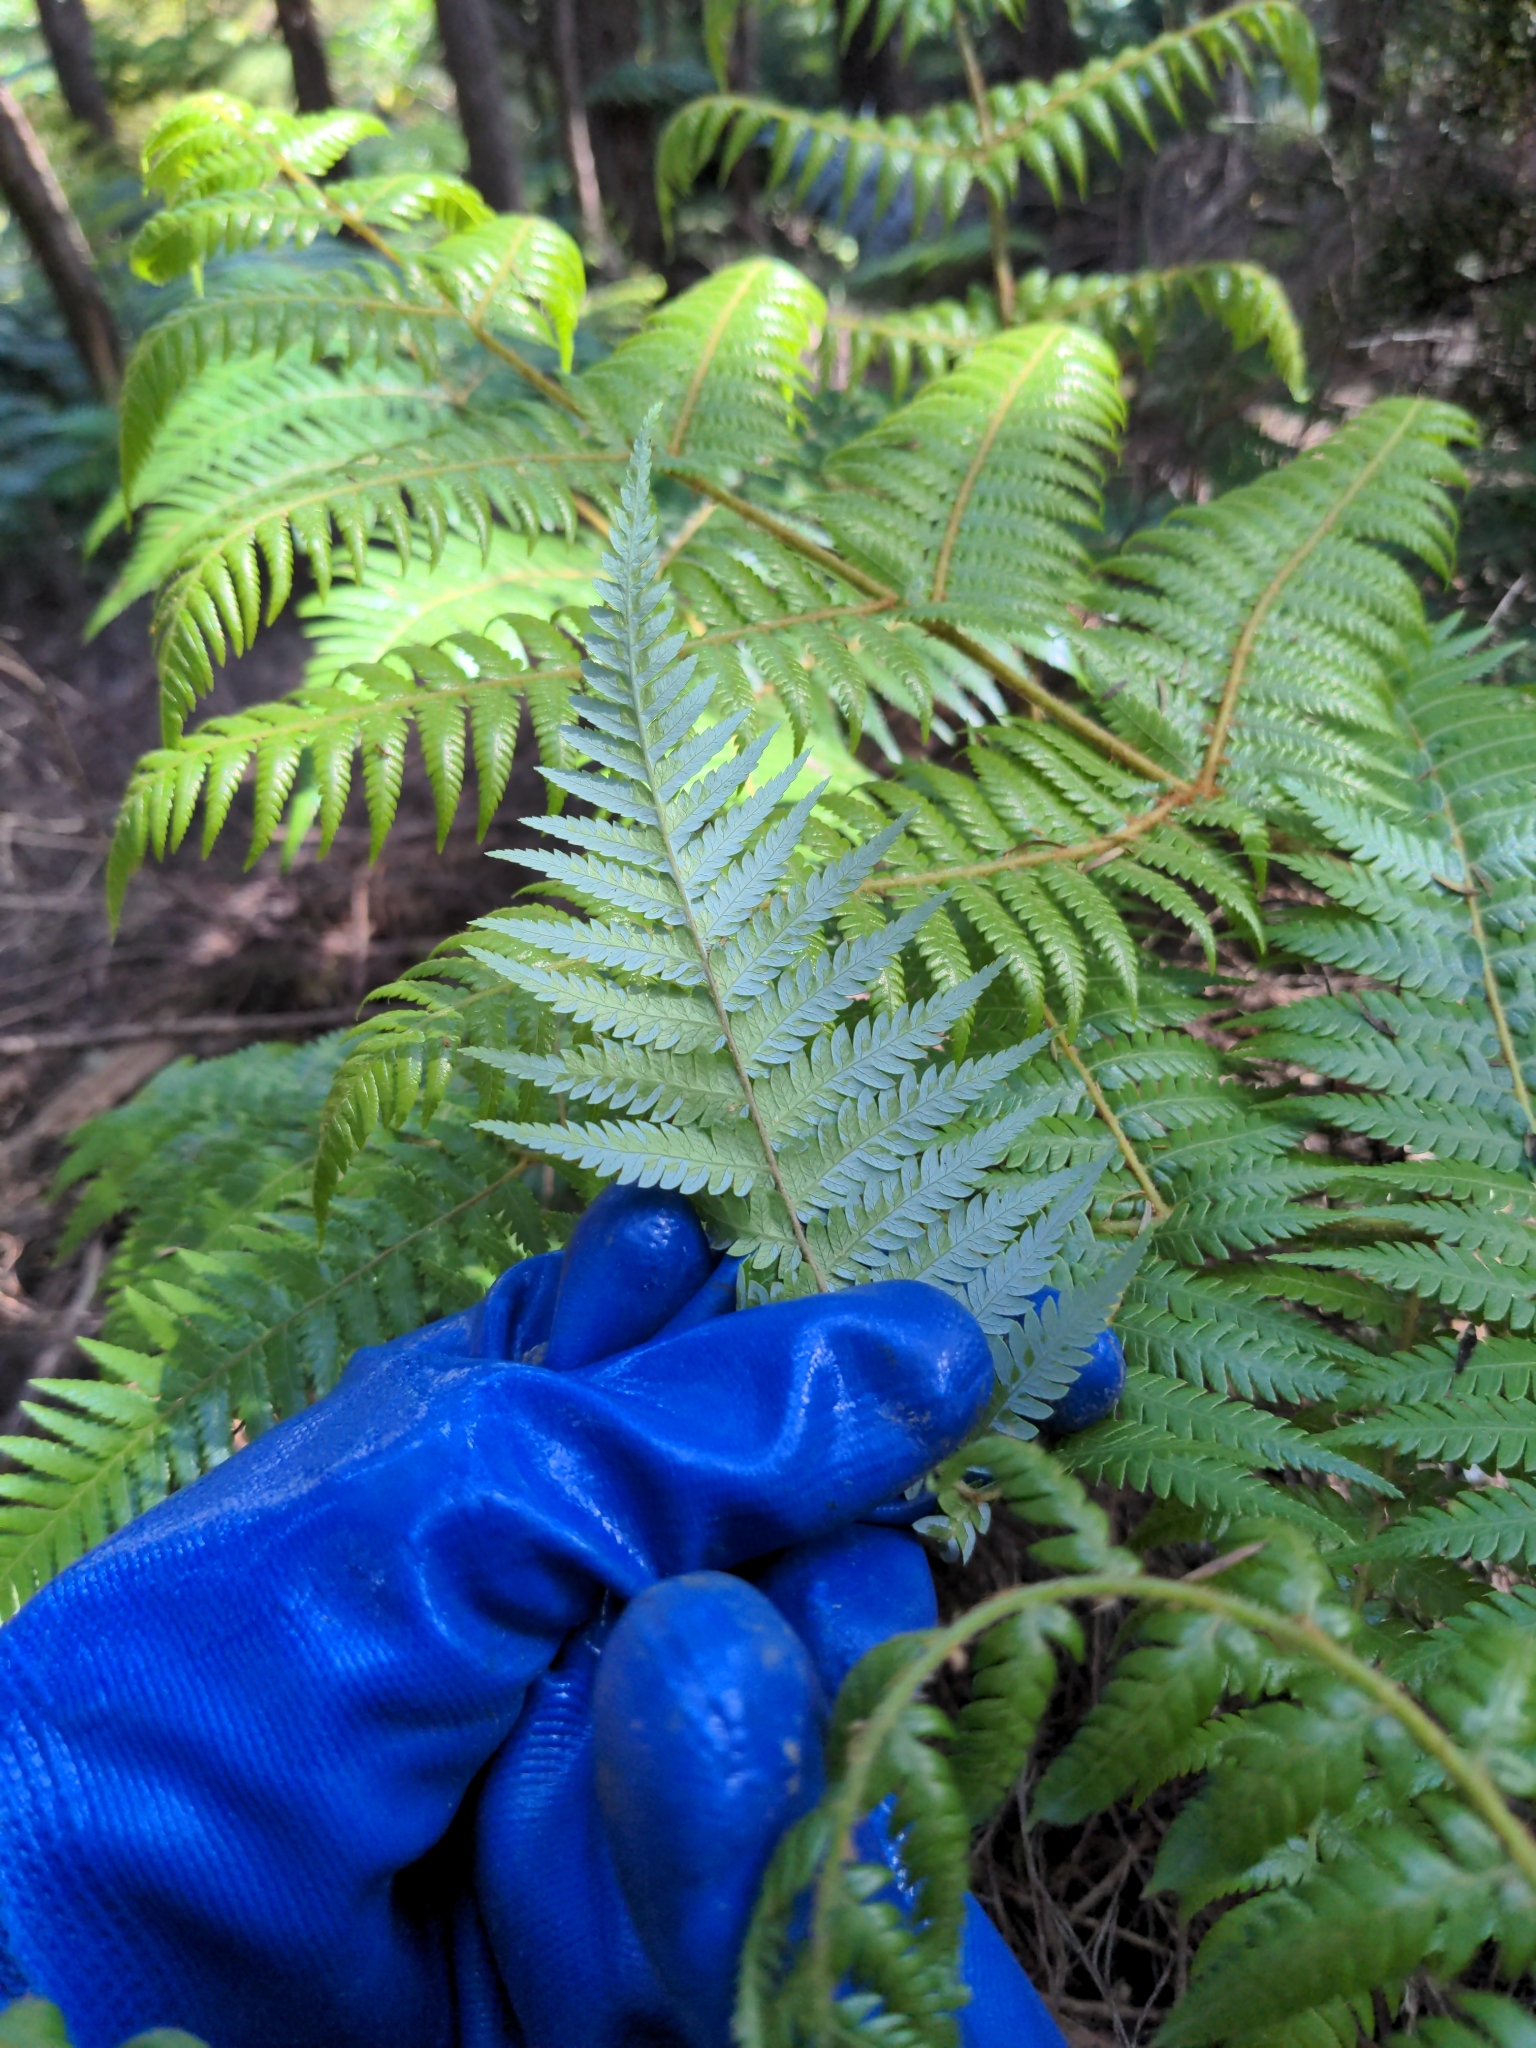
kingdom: Plantae
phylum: Tracheophyta
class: Polypodiopsida
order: Cyatheales
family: Cyatheaceae
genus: Alsophila
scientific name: Alsophila dealbata
